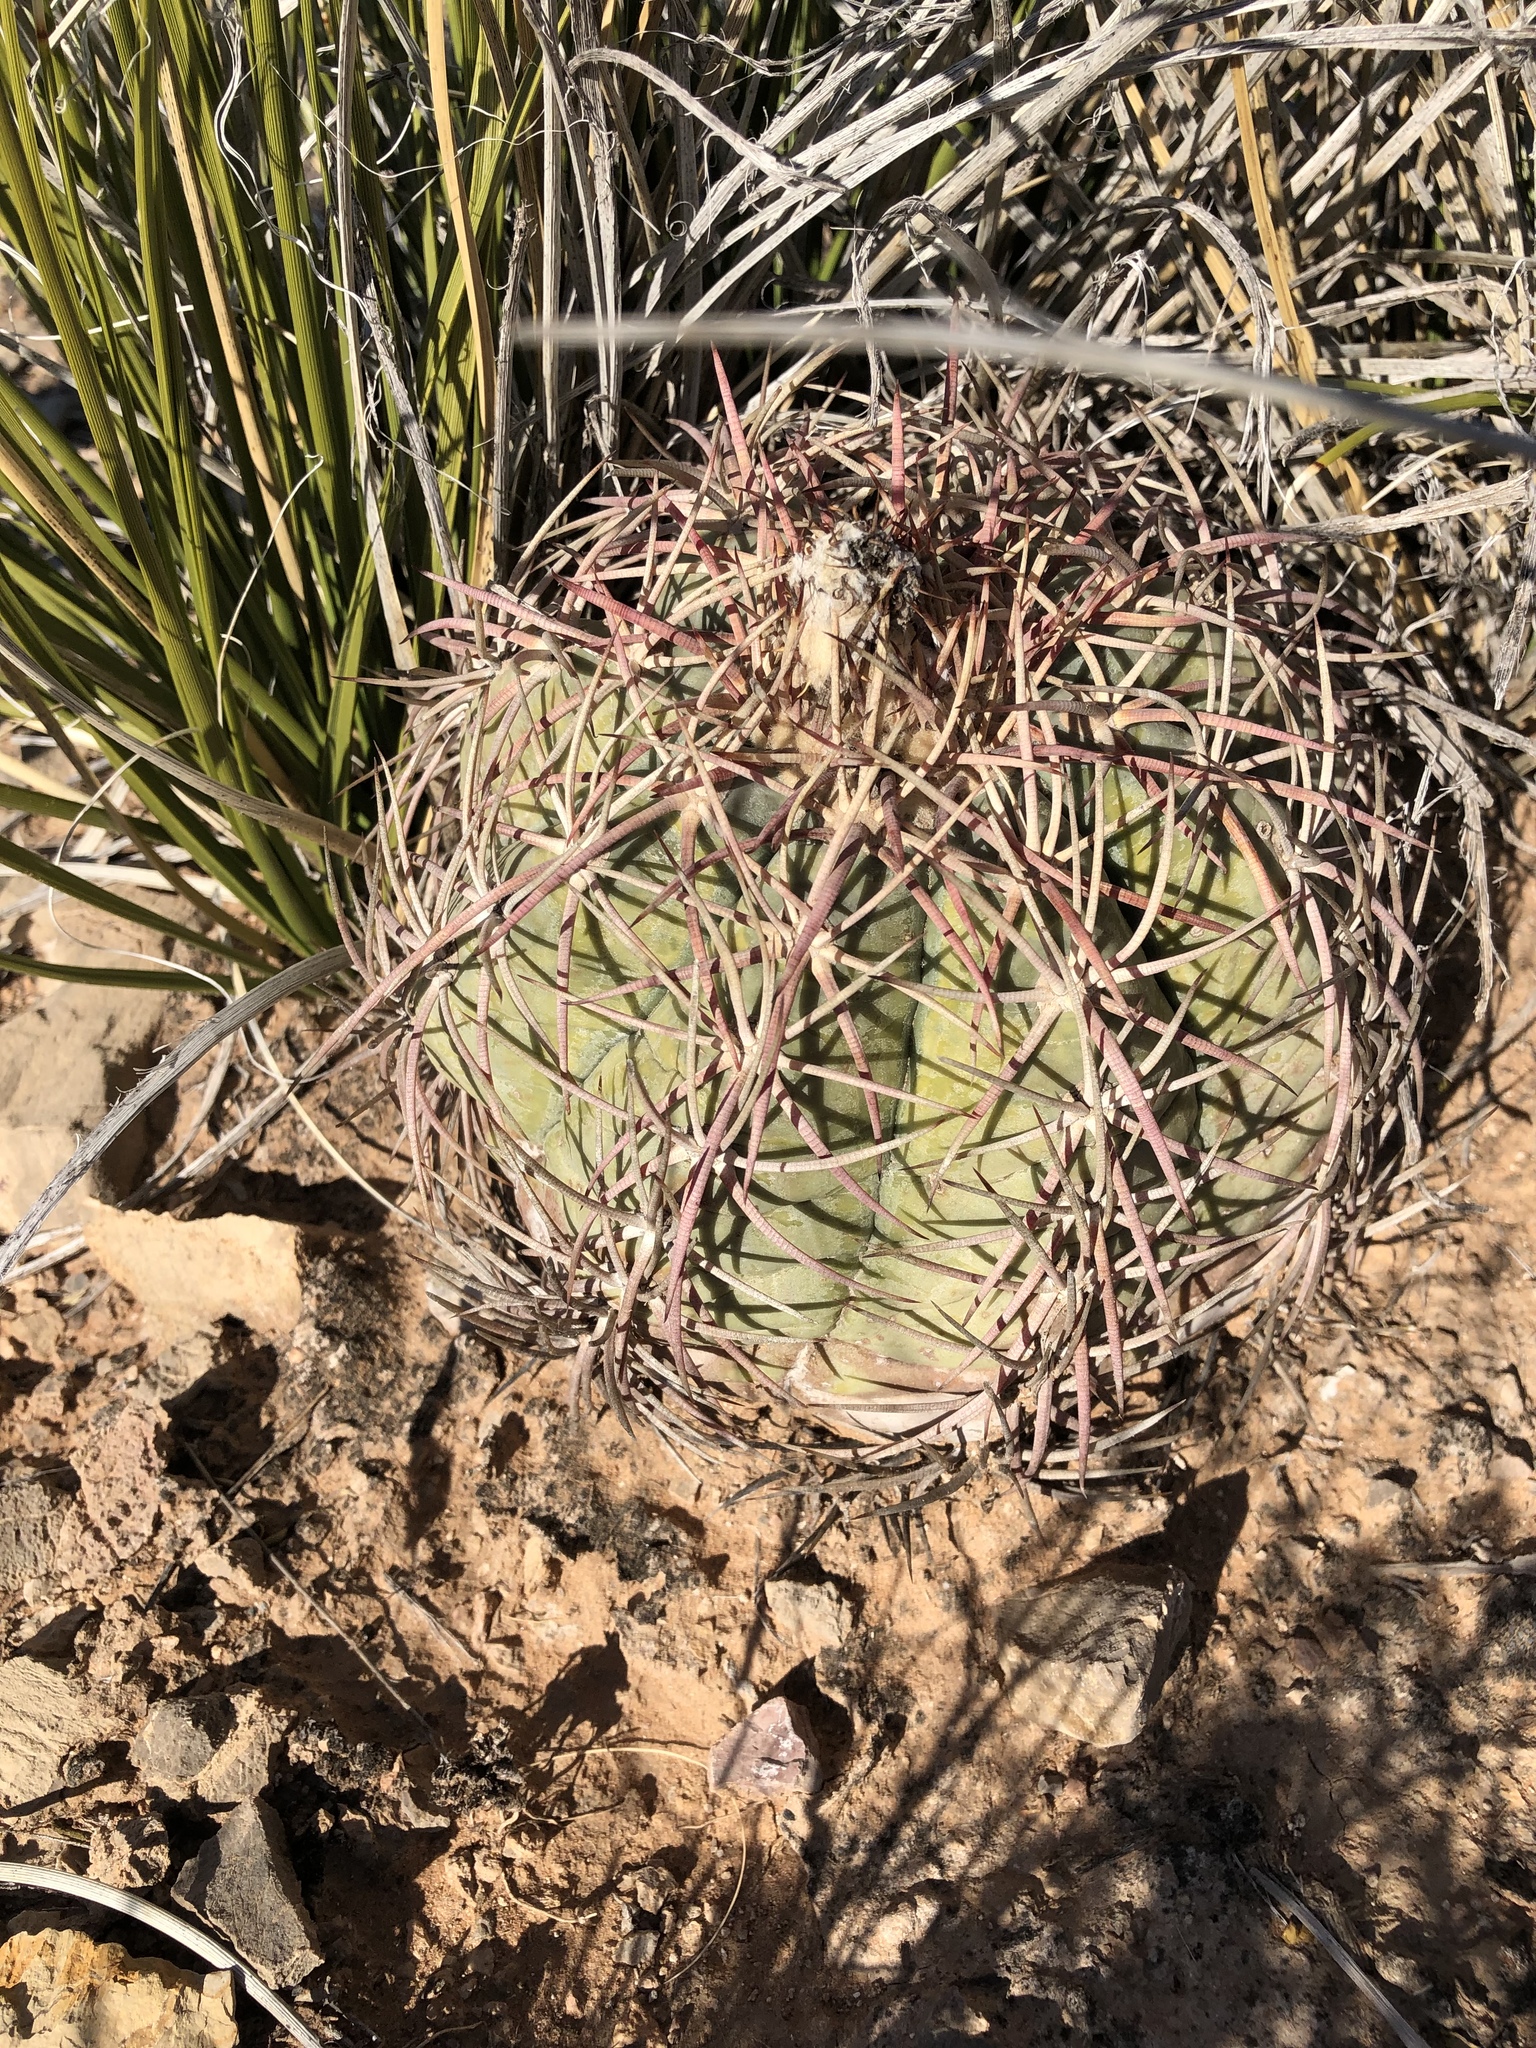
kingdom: Plantae
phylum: Tracheophyta
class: Magnoliopsida
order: Caryophyllales
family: Cactaceae
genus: Echinocactus
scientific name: Echinocactus horizonthalonius
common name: Devilshead
